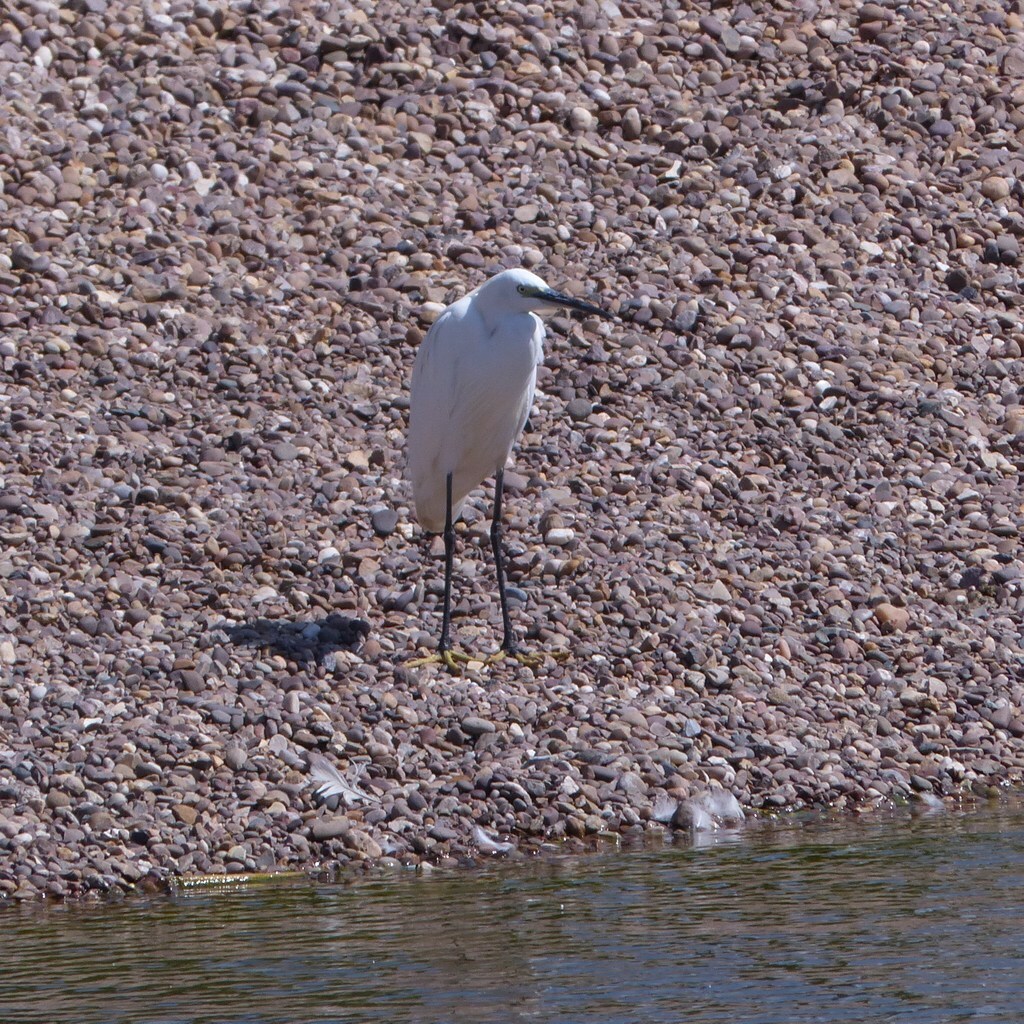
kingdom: Animalia
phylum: Chordata
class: Aves
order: Pelecaniformes
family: Ardeidae
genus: Egretta
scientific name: Egretta garzetta
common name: Little egret
